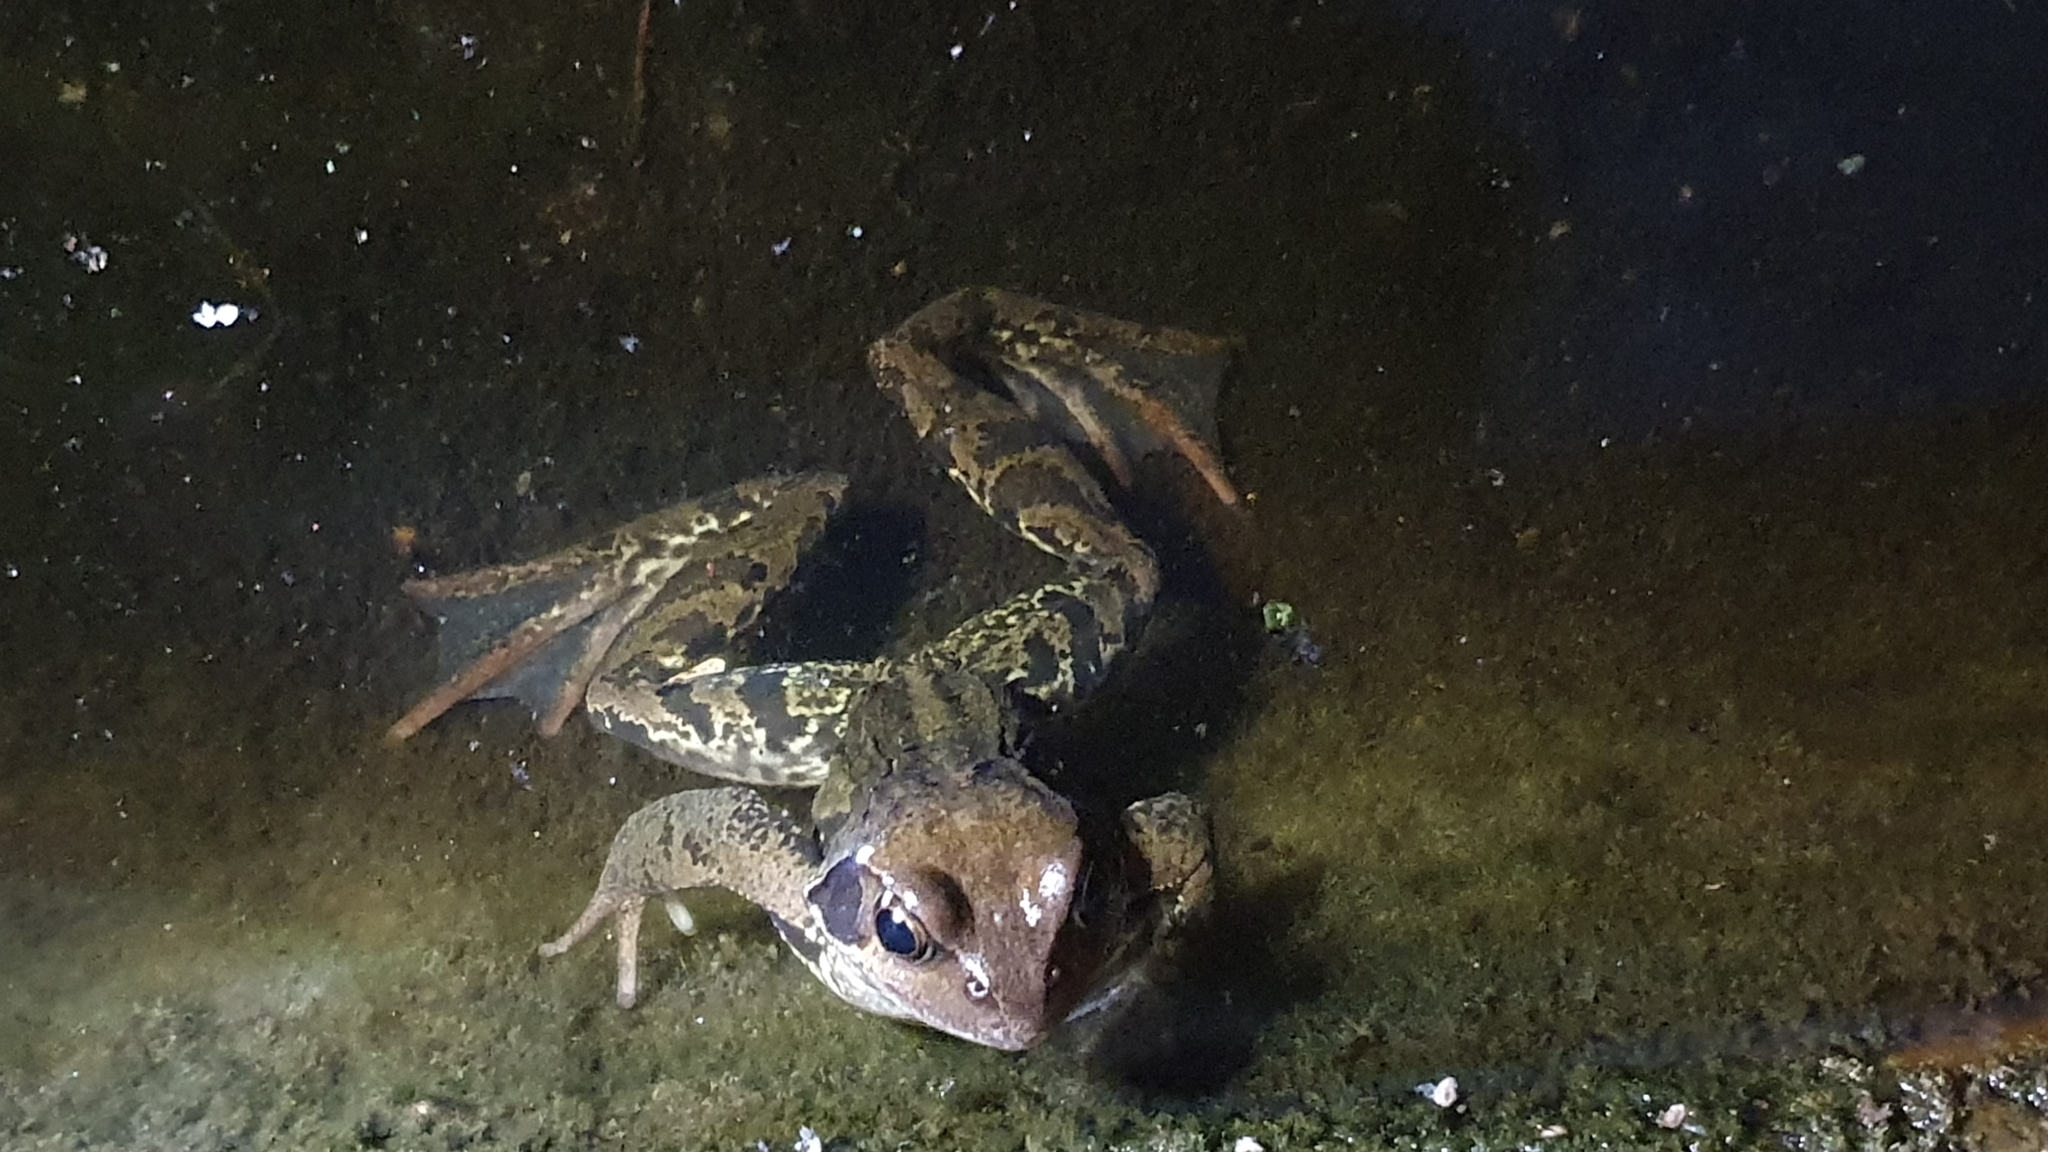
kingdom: Animalia
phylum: Chordata
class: Amphibia
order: Anura
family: Ranidae
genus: Rana
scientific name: Rana temporaria
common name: Common frog
